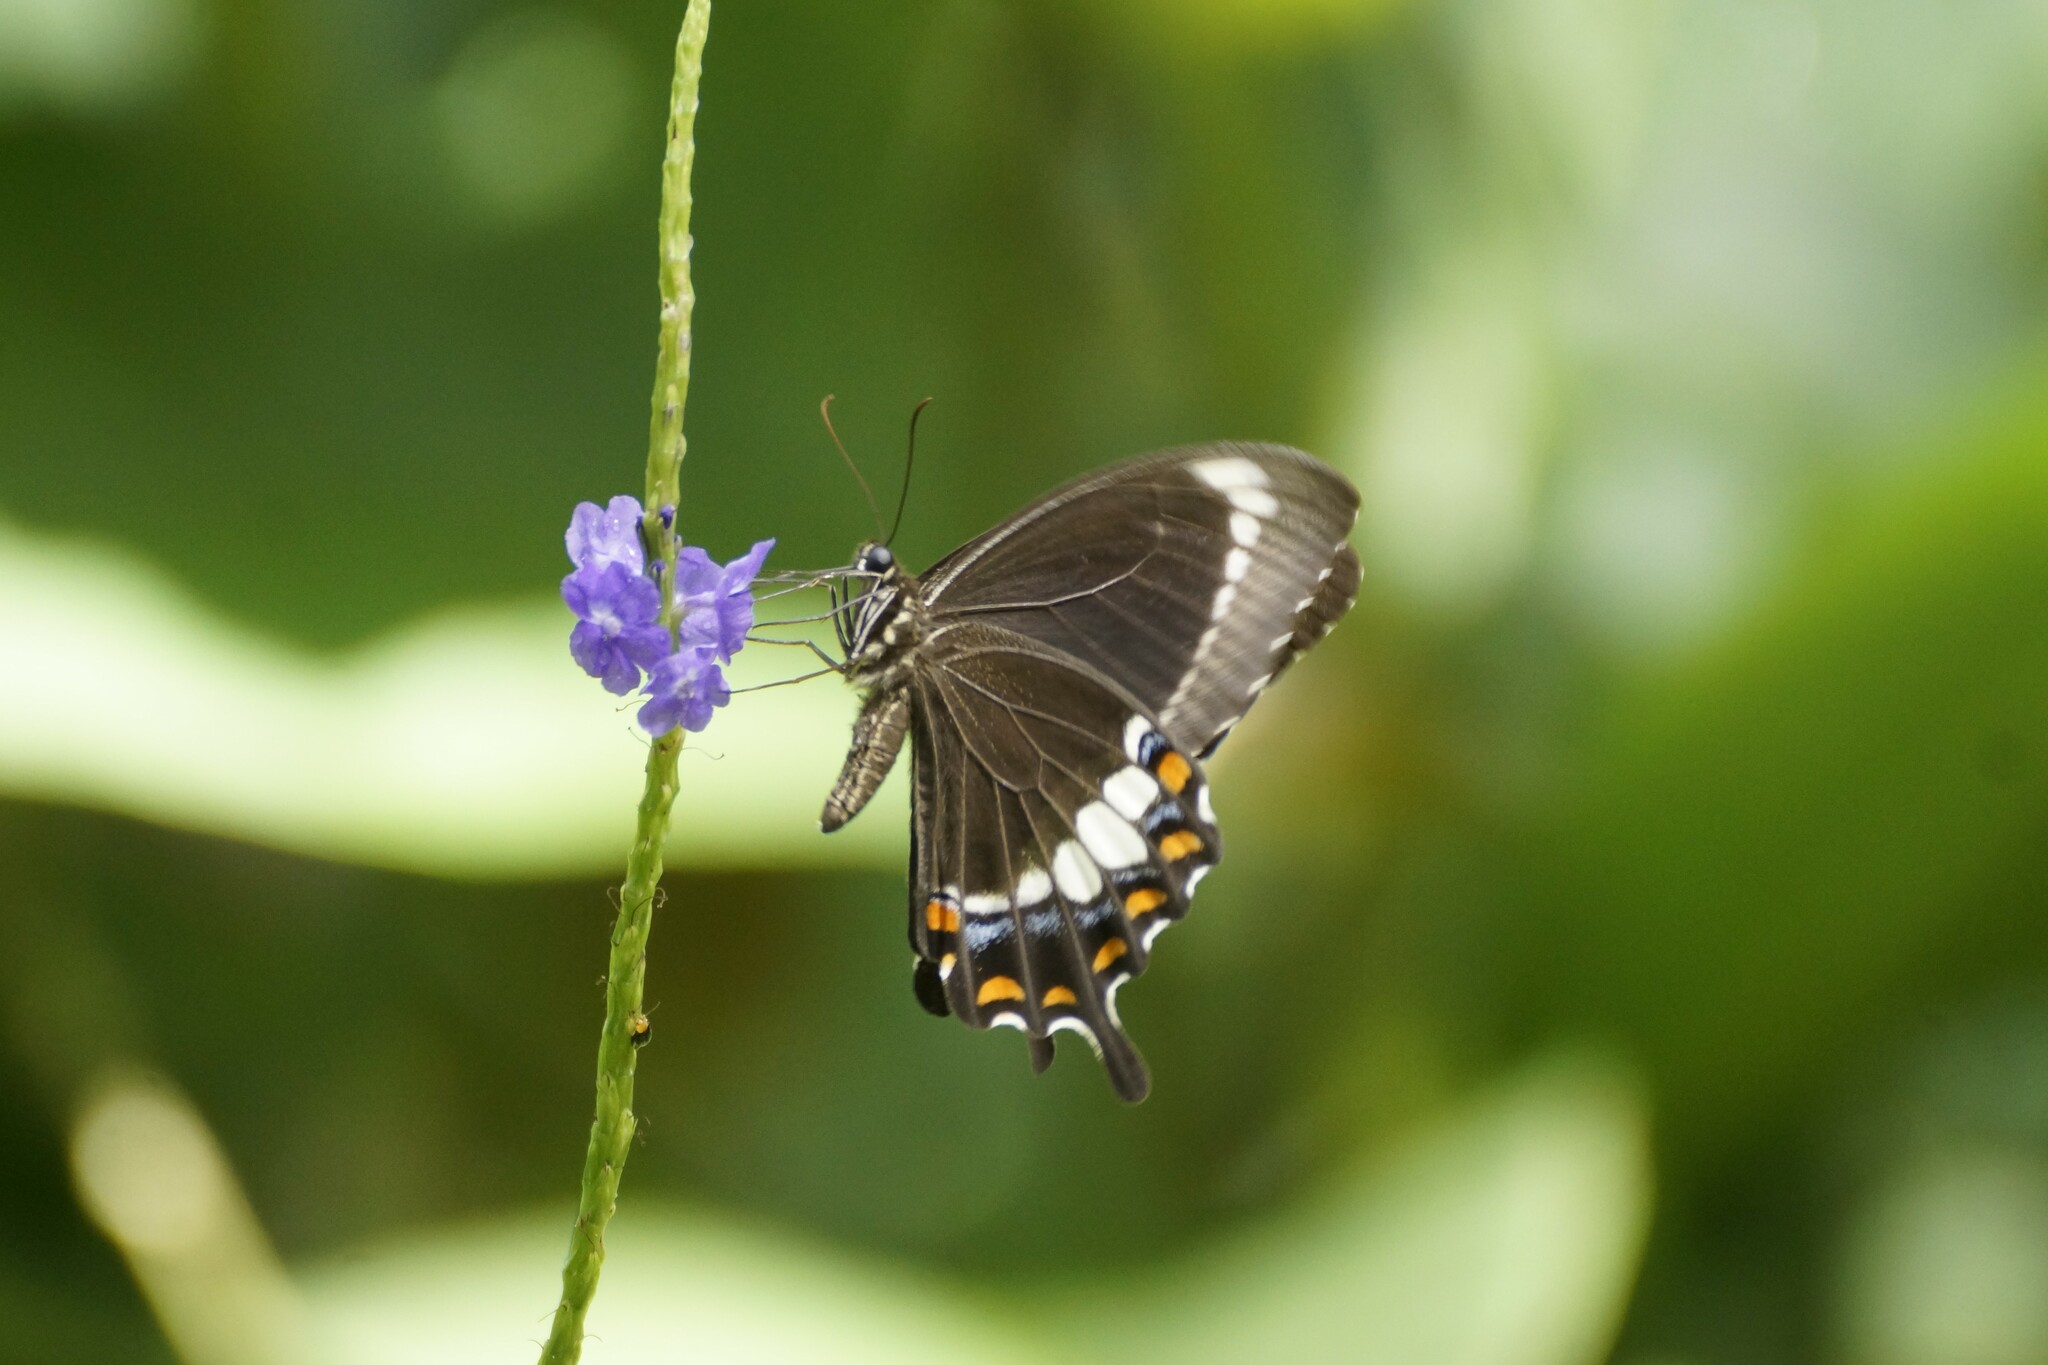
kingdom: Animalia
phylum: Arthropoda
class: Insecta
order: Lepidoptera
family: Lycaenidae
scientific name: Lycaenidae
